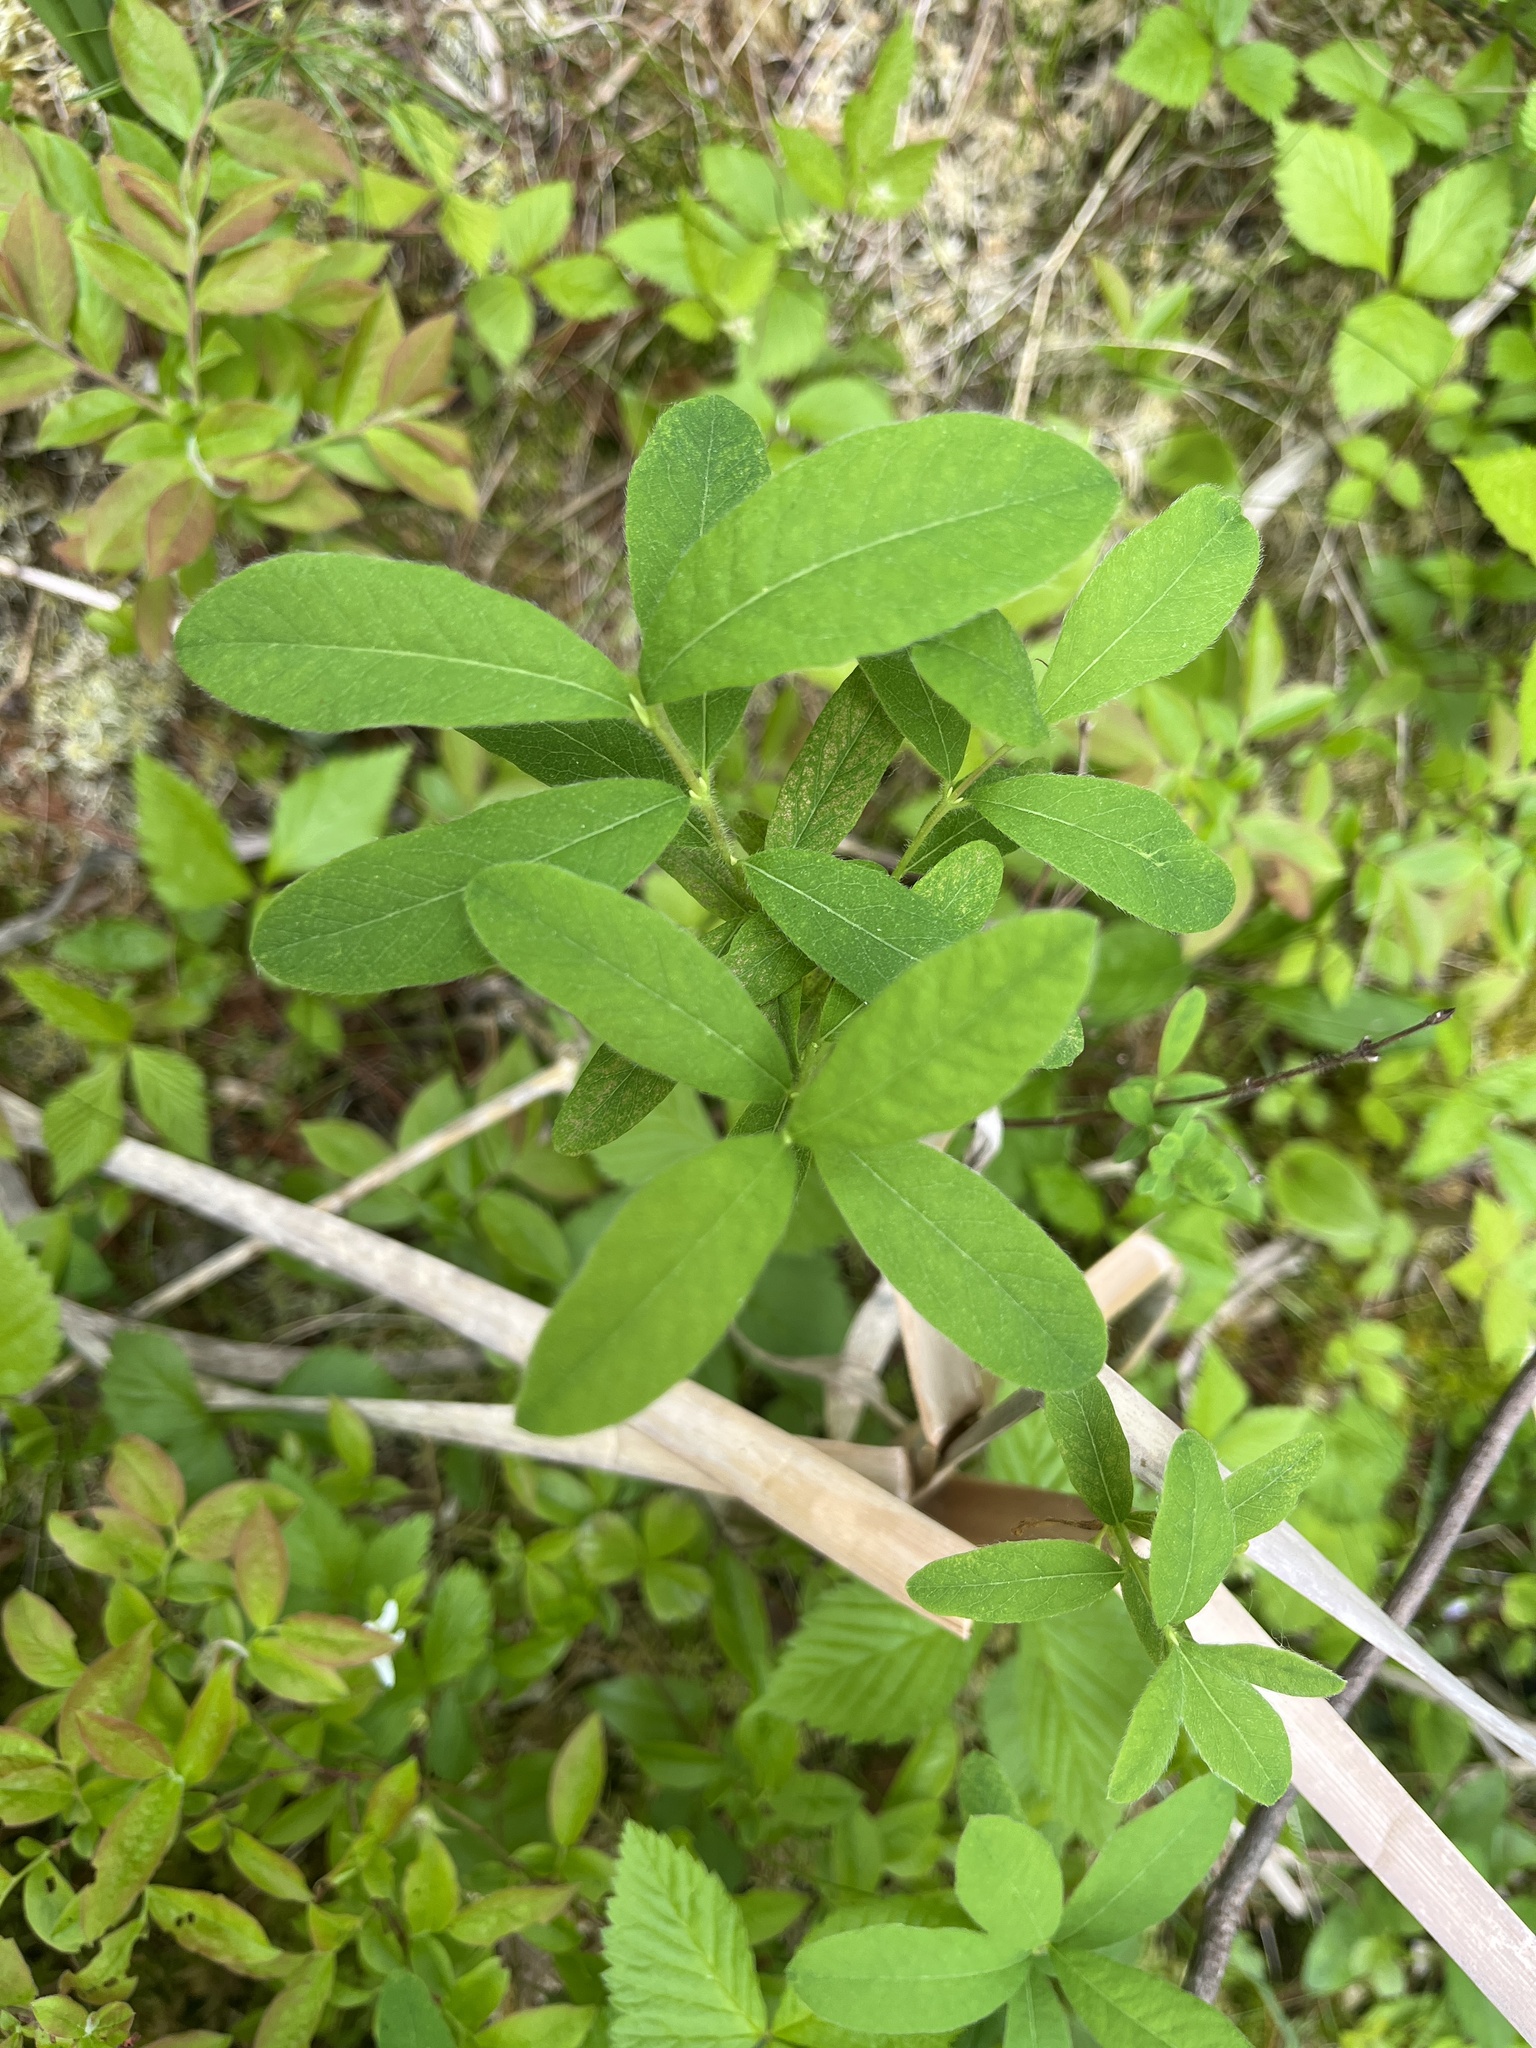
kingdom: Plantae
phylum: Tracheophyta
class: Magnoliopsida
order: Dipsacales
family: Caprifoliaceae
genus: Lonicera
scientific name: Lonicera villosa
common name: Mountain fly-honeysuckle
